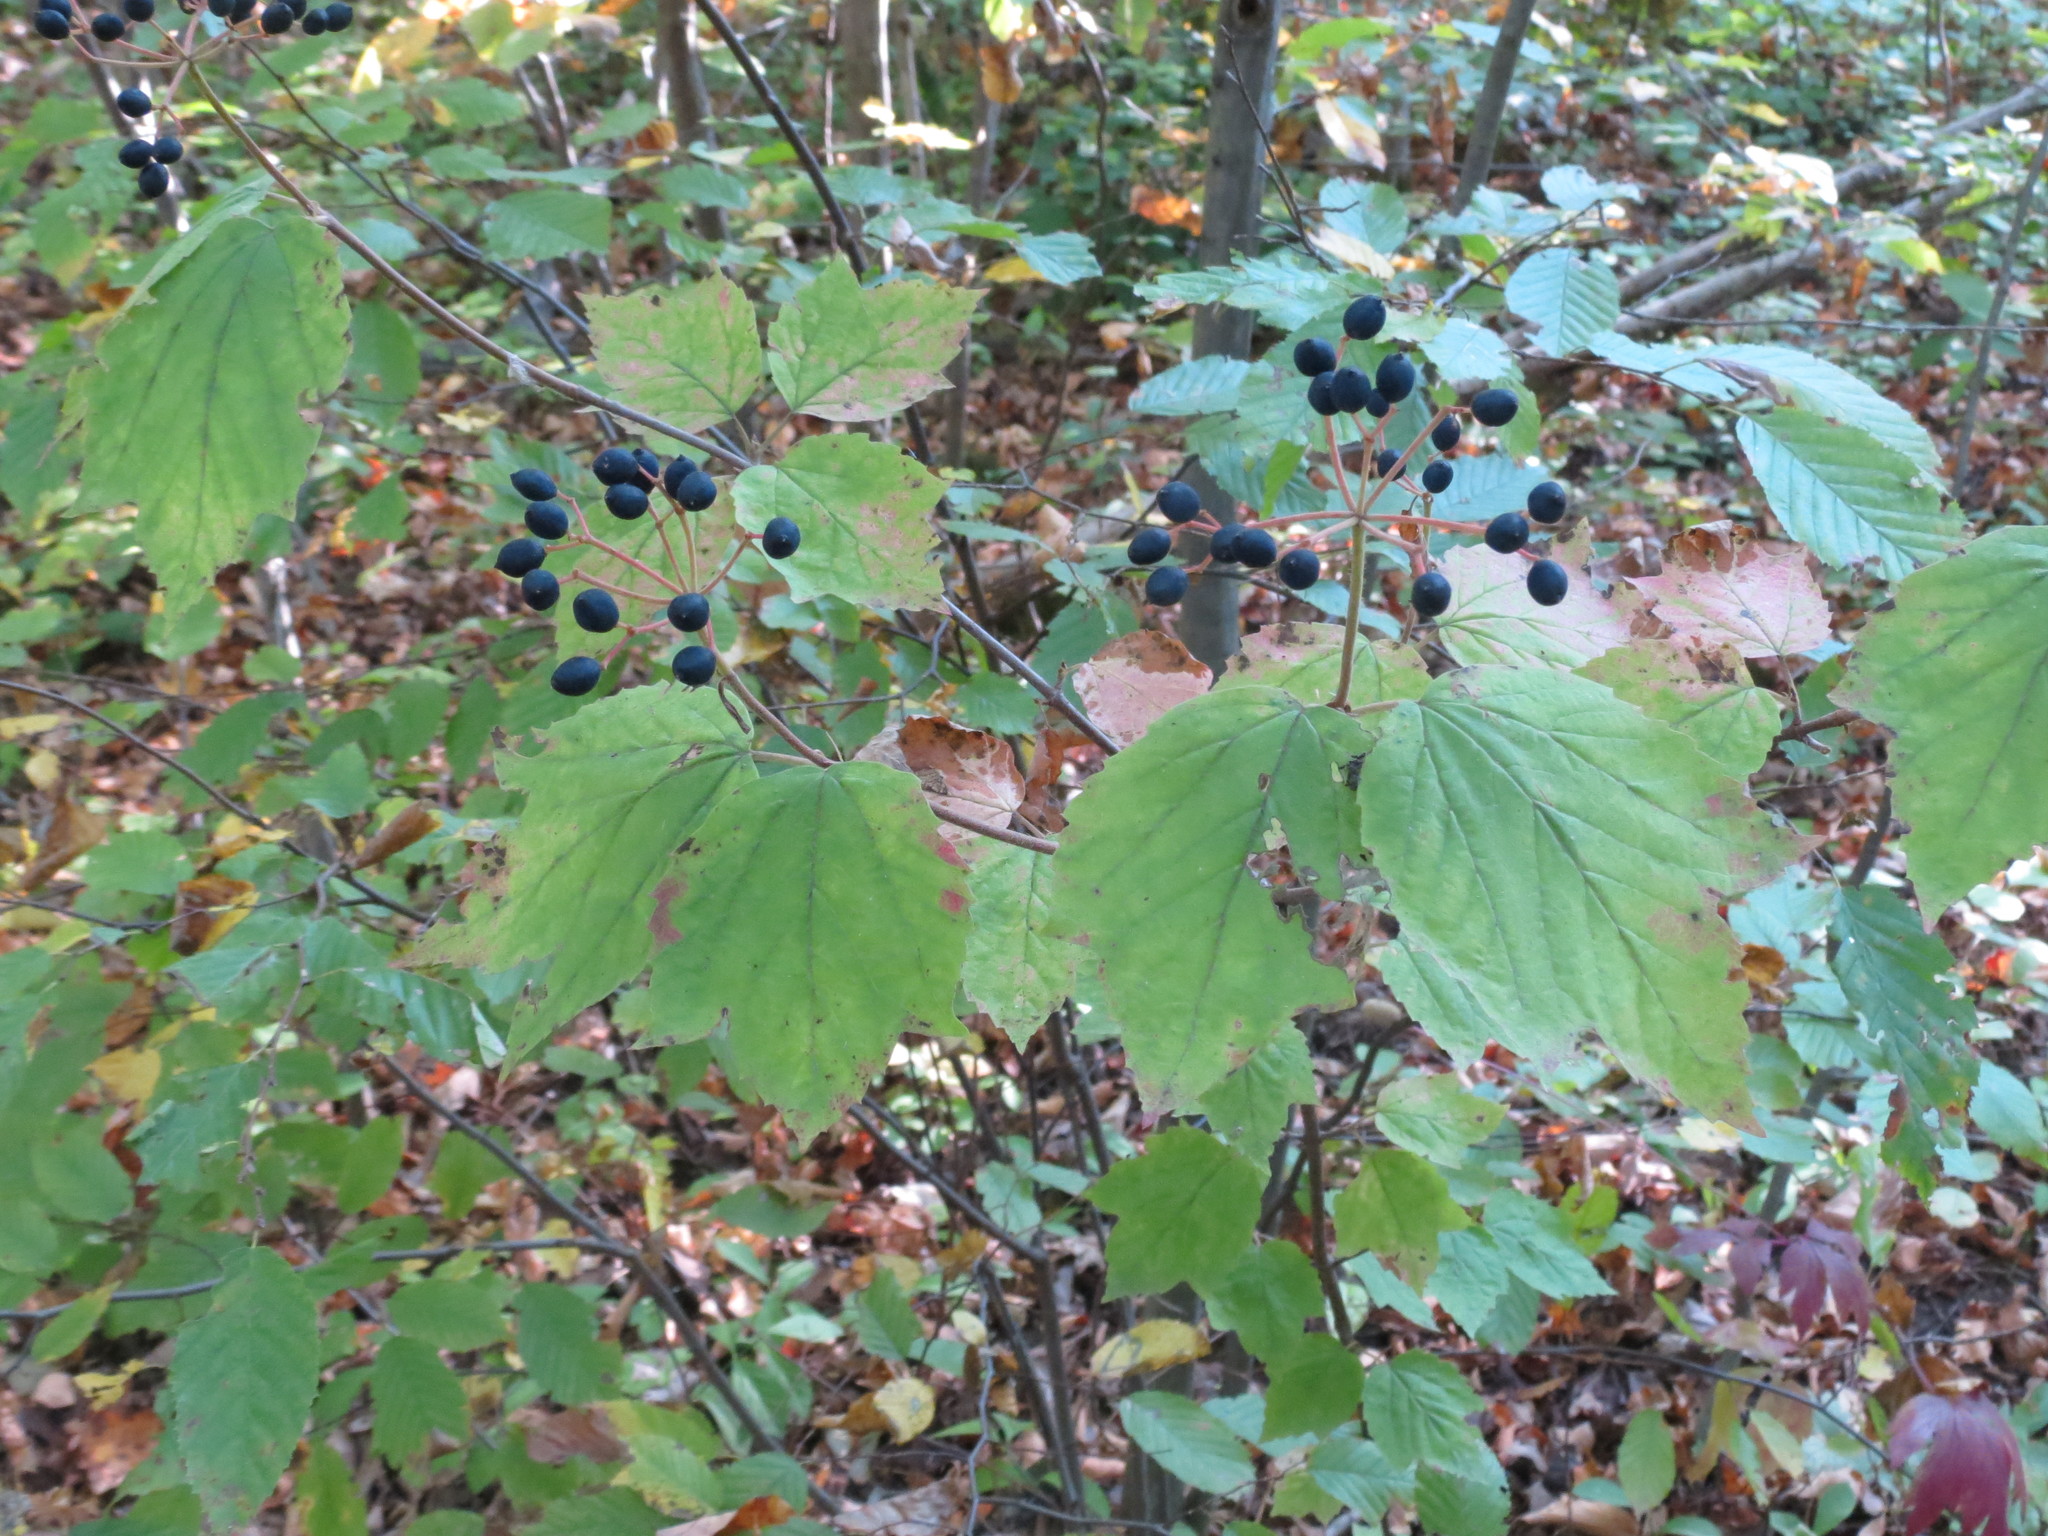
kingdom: Plantae
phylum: Tracheophyta
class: Magnoliopsida
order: Dipsacales
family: Viburnaceae
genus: Viburnum
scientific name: Viburnum acerifolium
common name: Dockmackie
